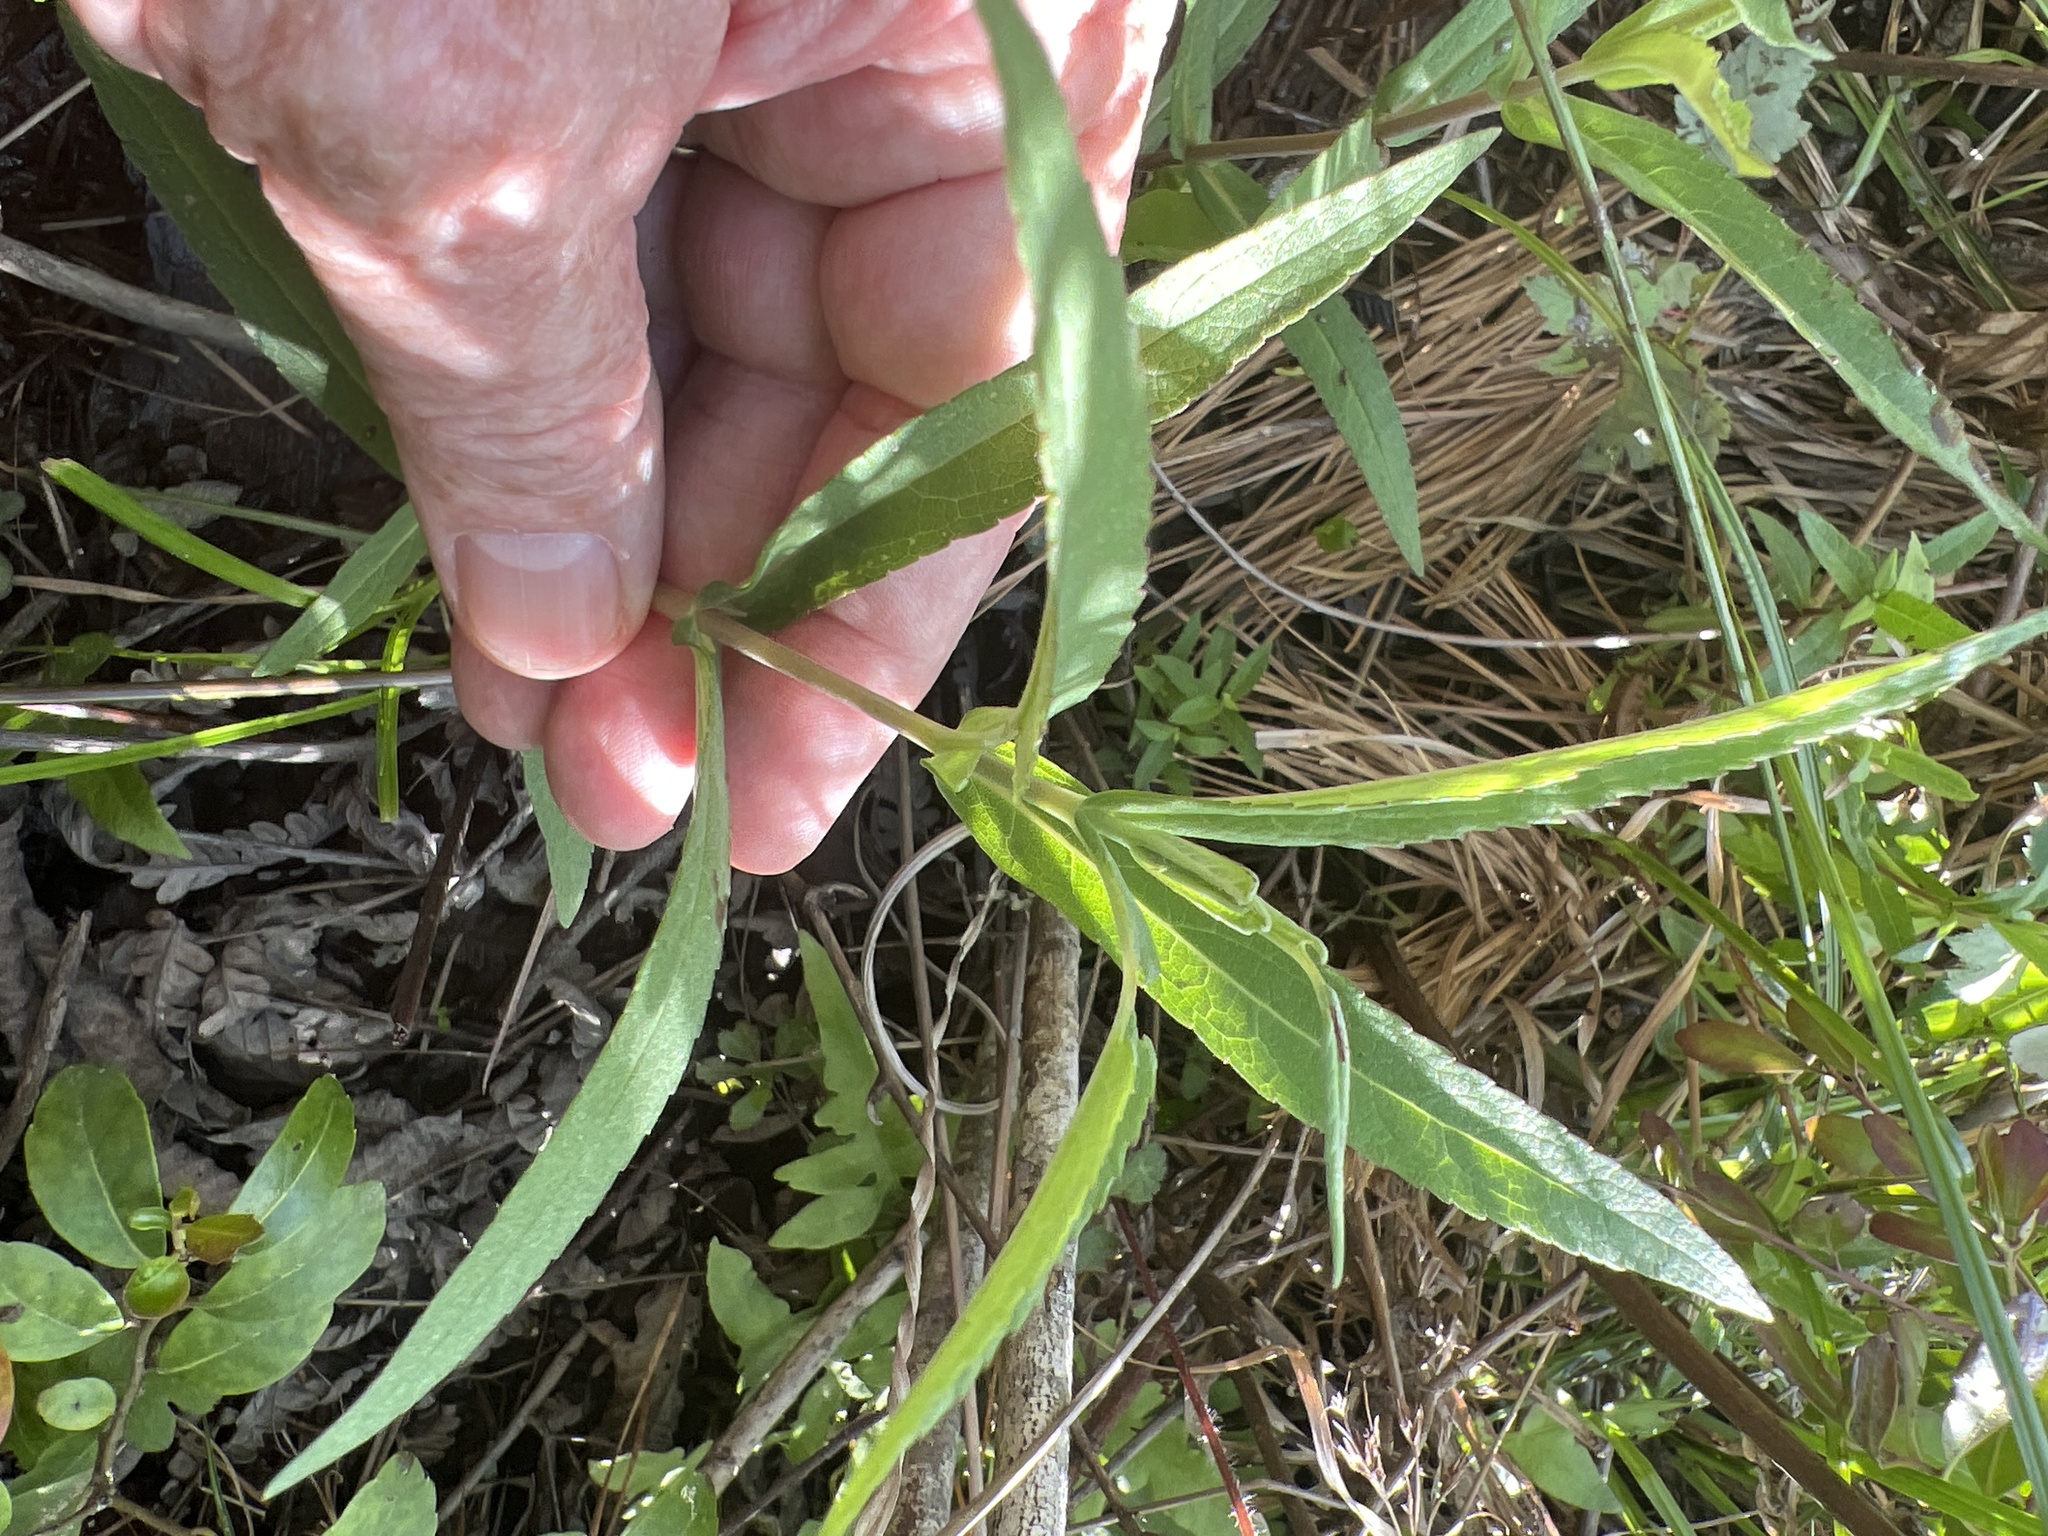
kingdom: Plantae
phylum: Tracheophyta
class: Magnoliopsida
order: Asterales
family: Asteraceae
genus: Eupatorium
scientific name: Eupatorium resinosum
